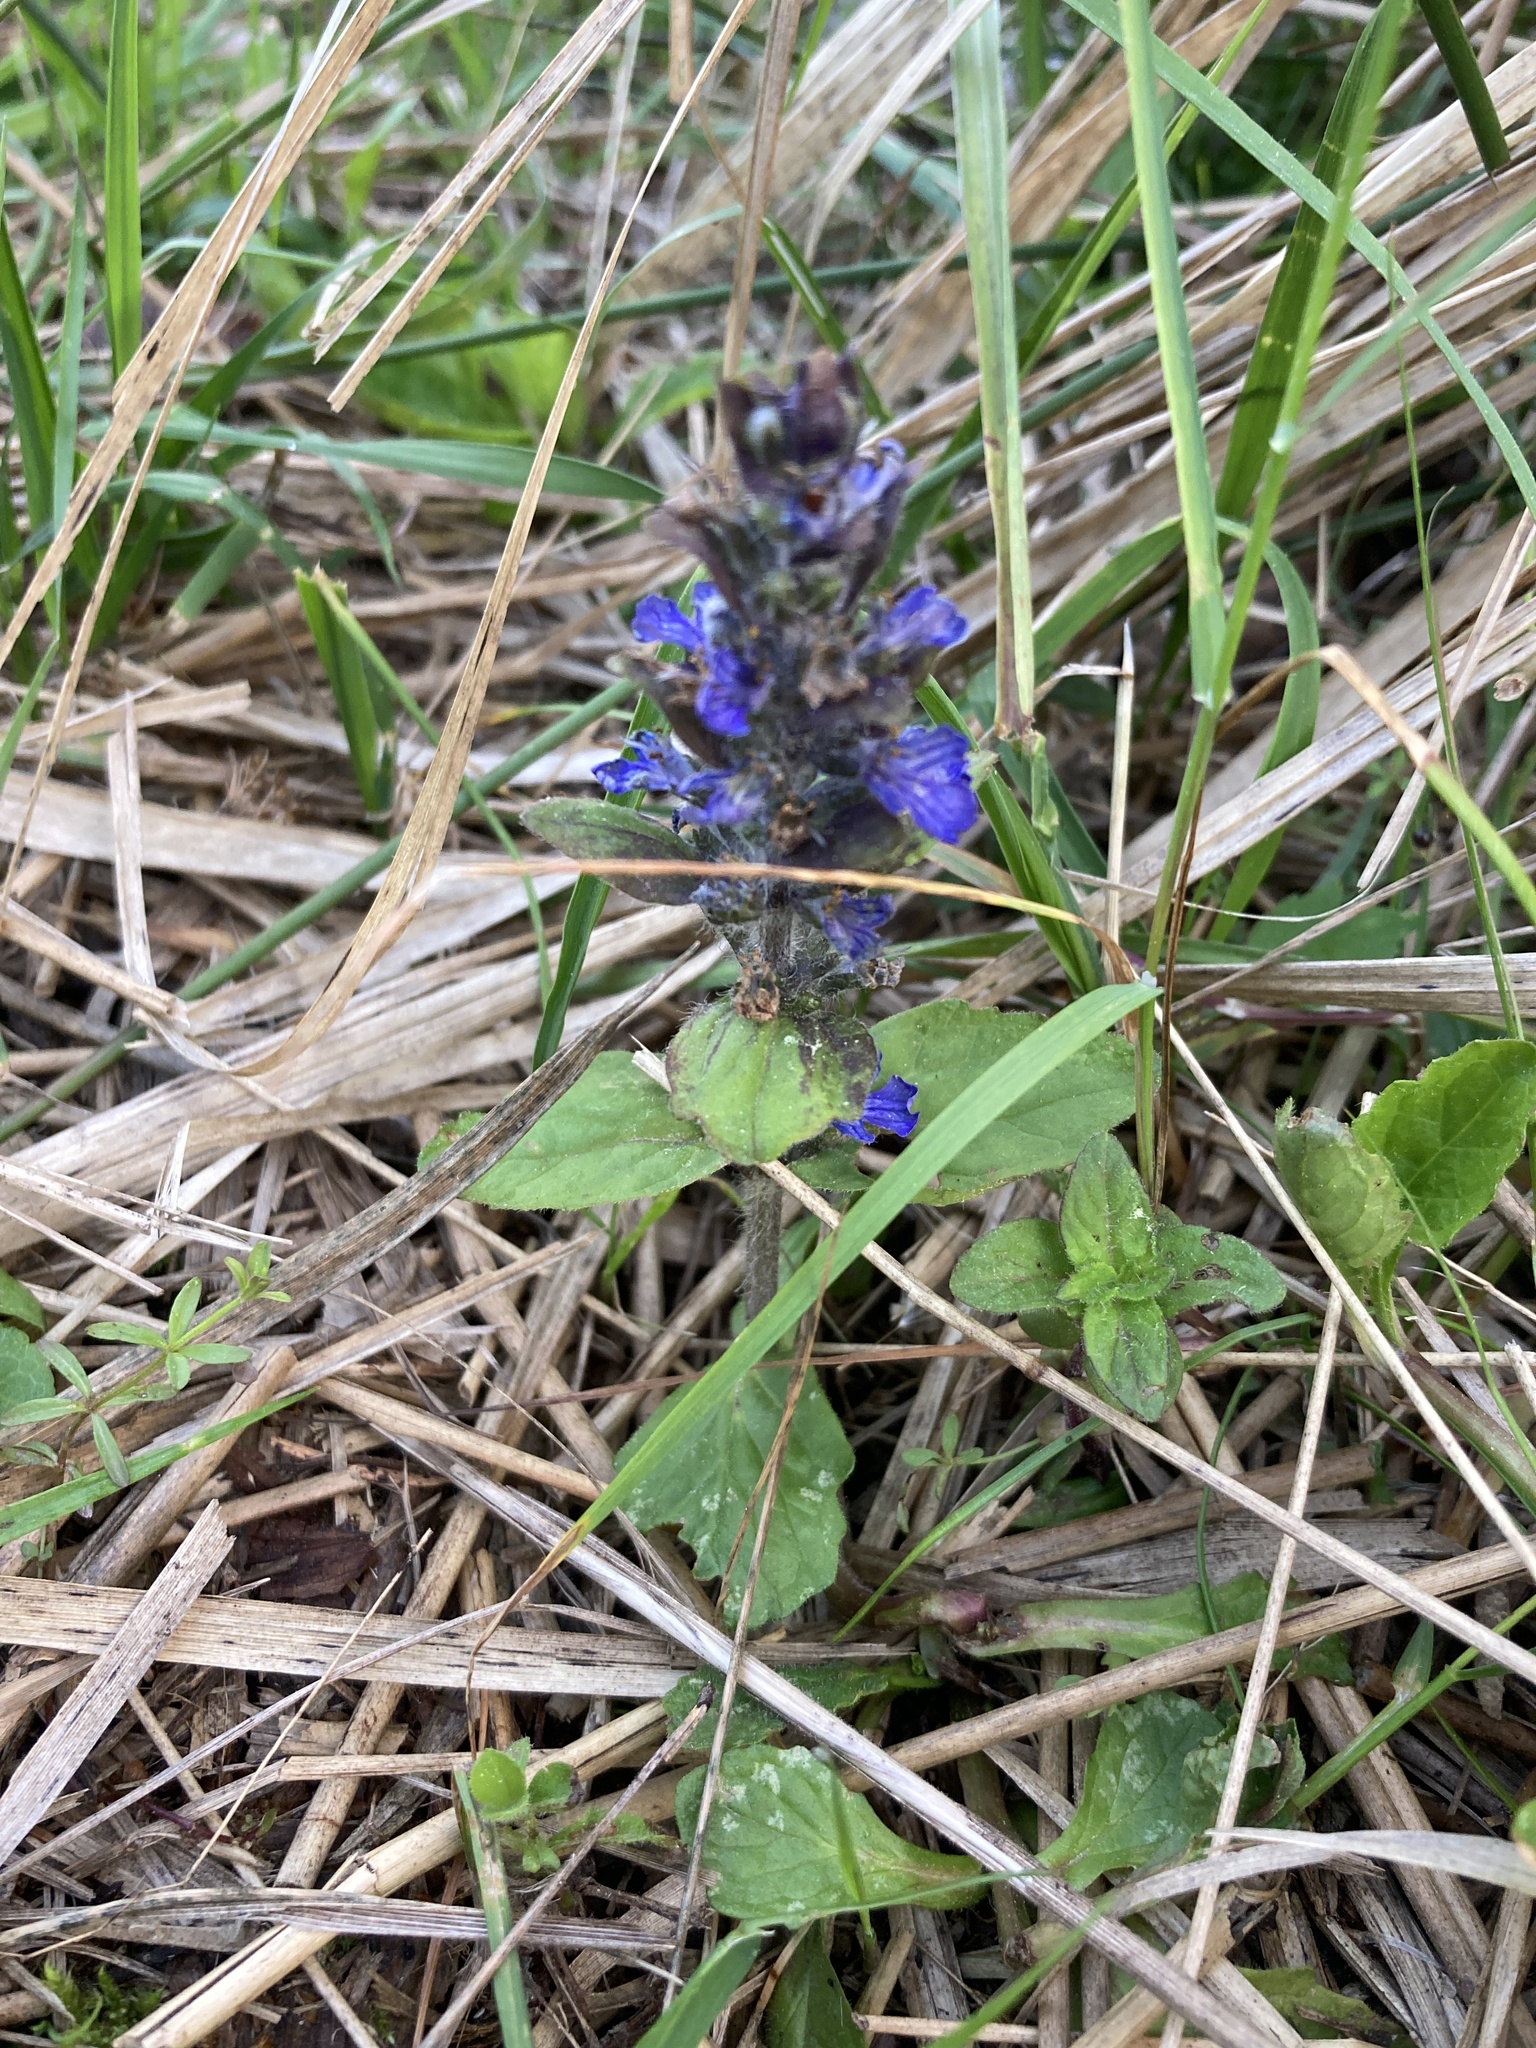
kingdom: Plantae
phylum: Tracheophyta
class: Magnoliopsida
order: Lamiales
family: Lamiaceae
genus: Ajuga
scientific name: Ajuga reptans
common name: Bugle
